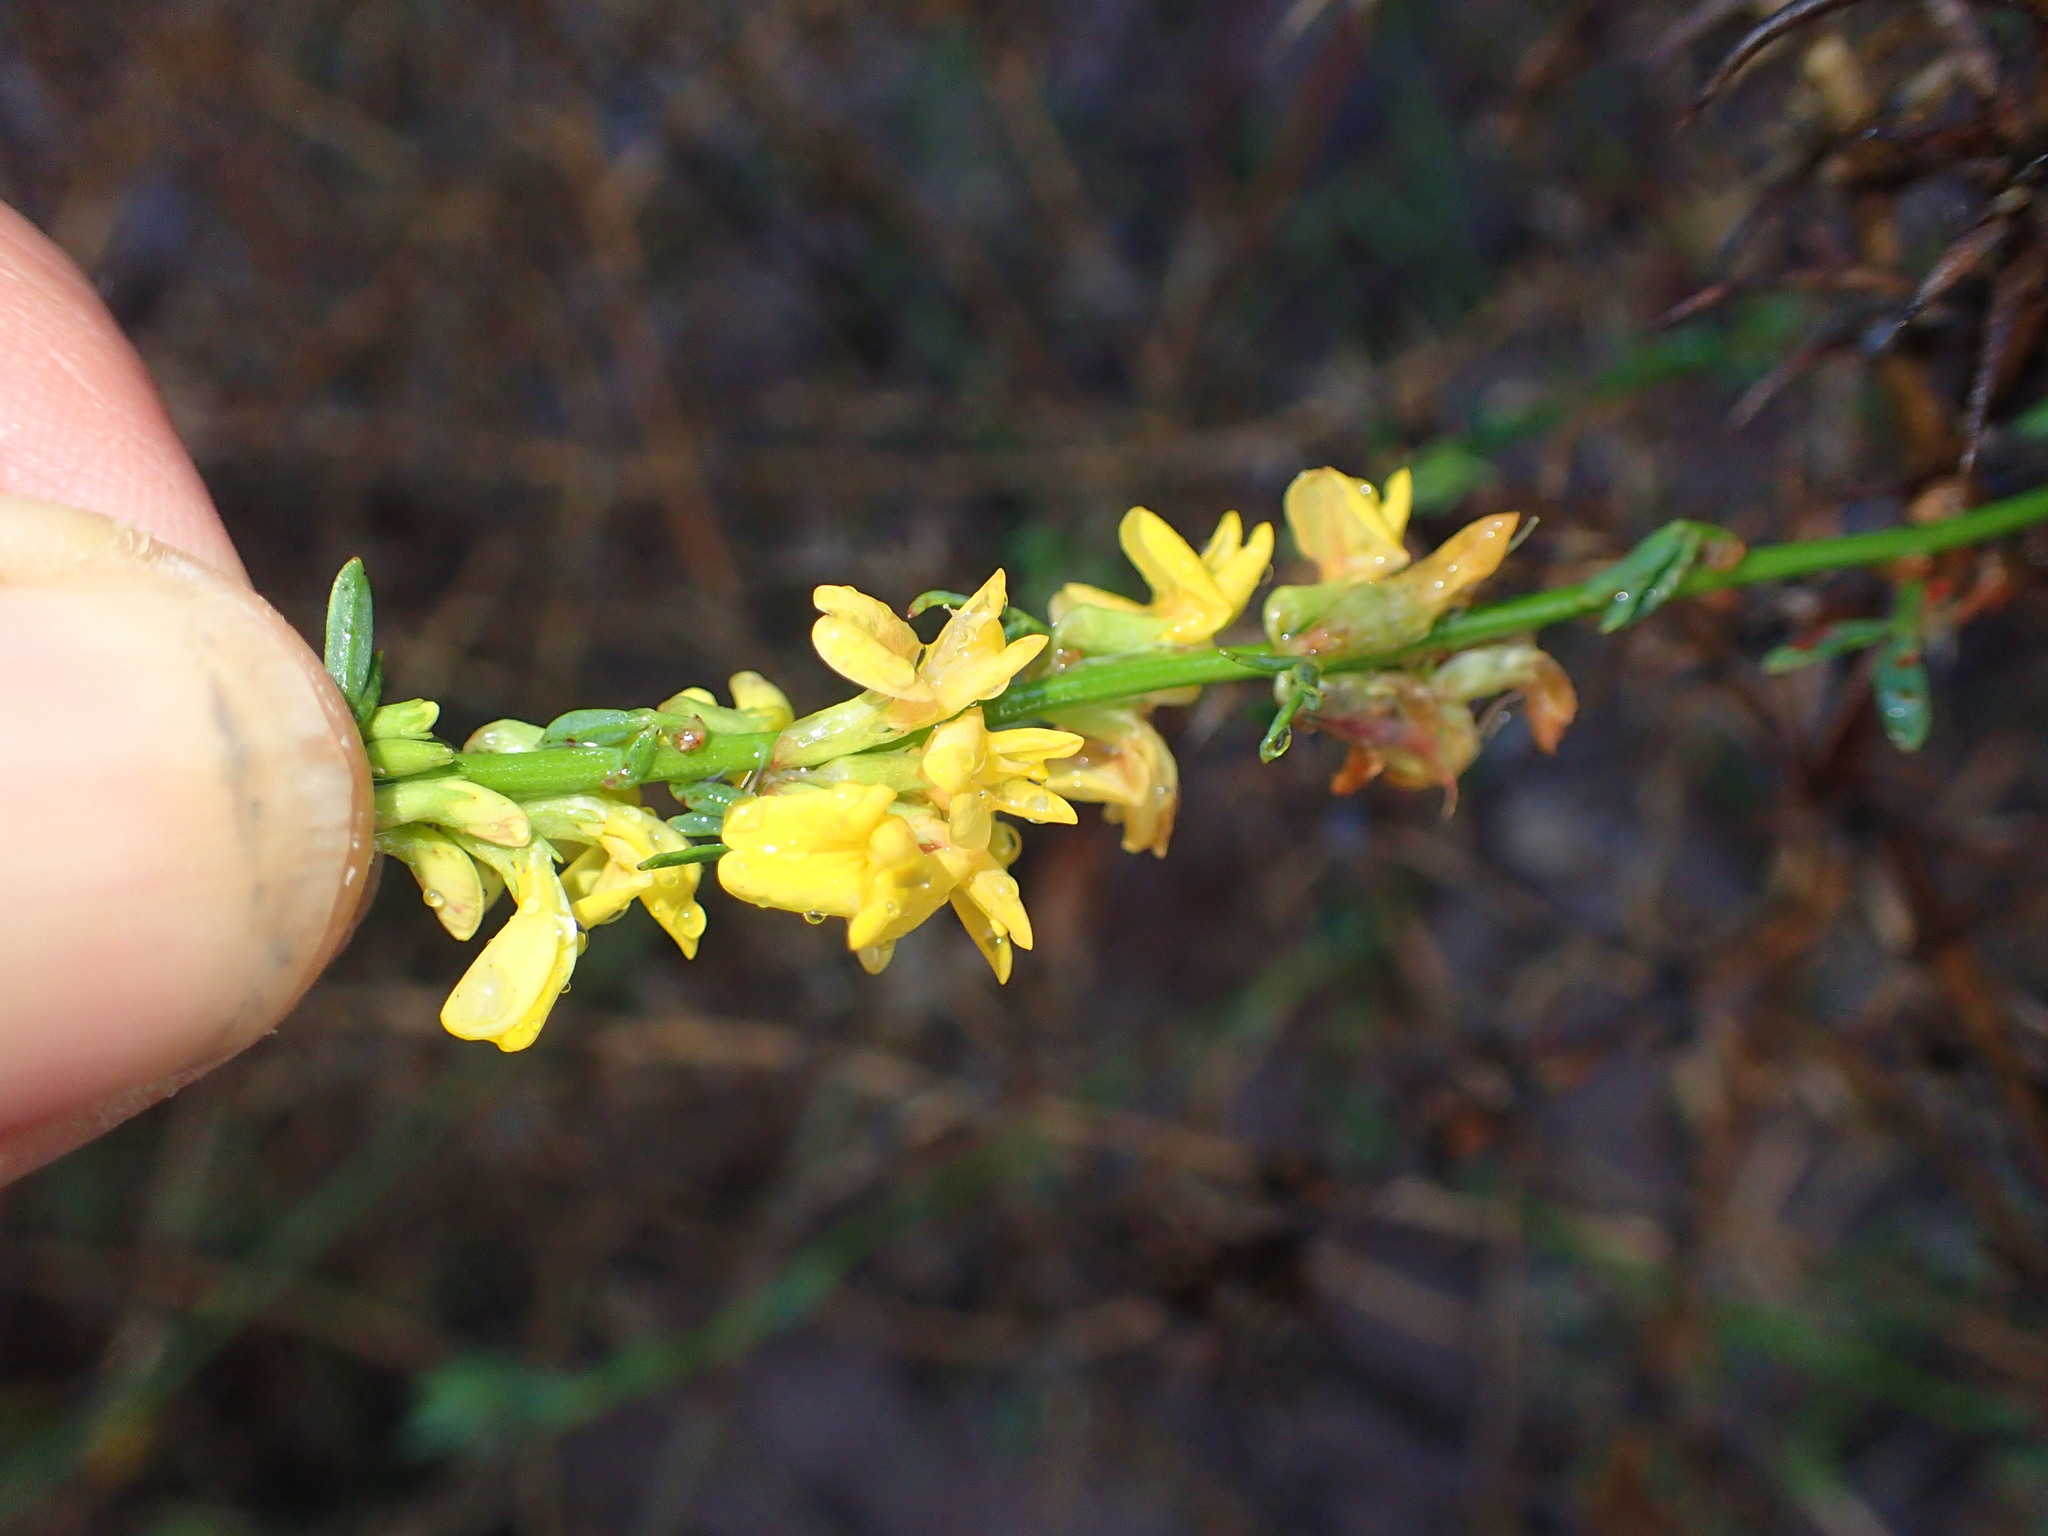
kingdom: Plantae
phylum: Tracheophyta
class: Magnoliopsida
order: Fabales
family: Fabaceae
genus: Acmispon
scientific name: Acmispon glaber
